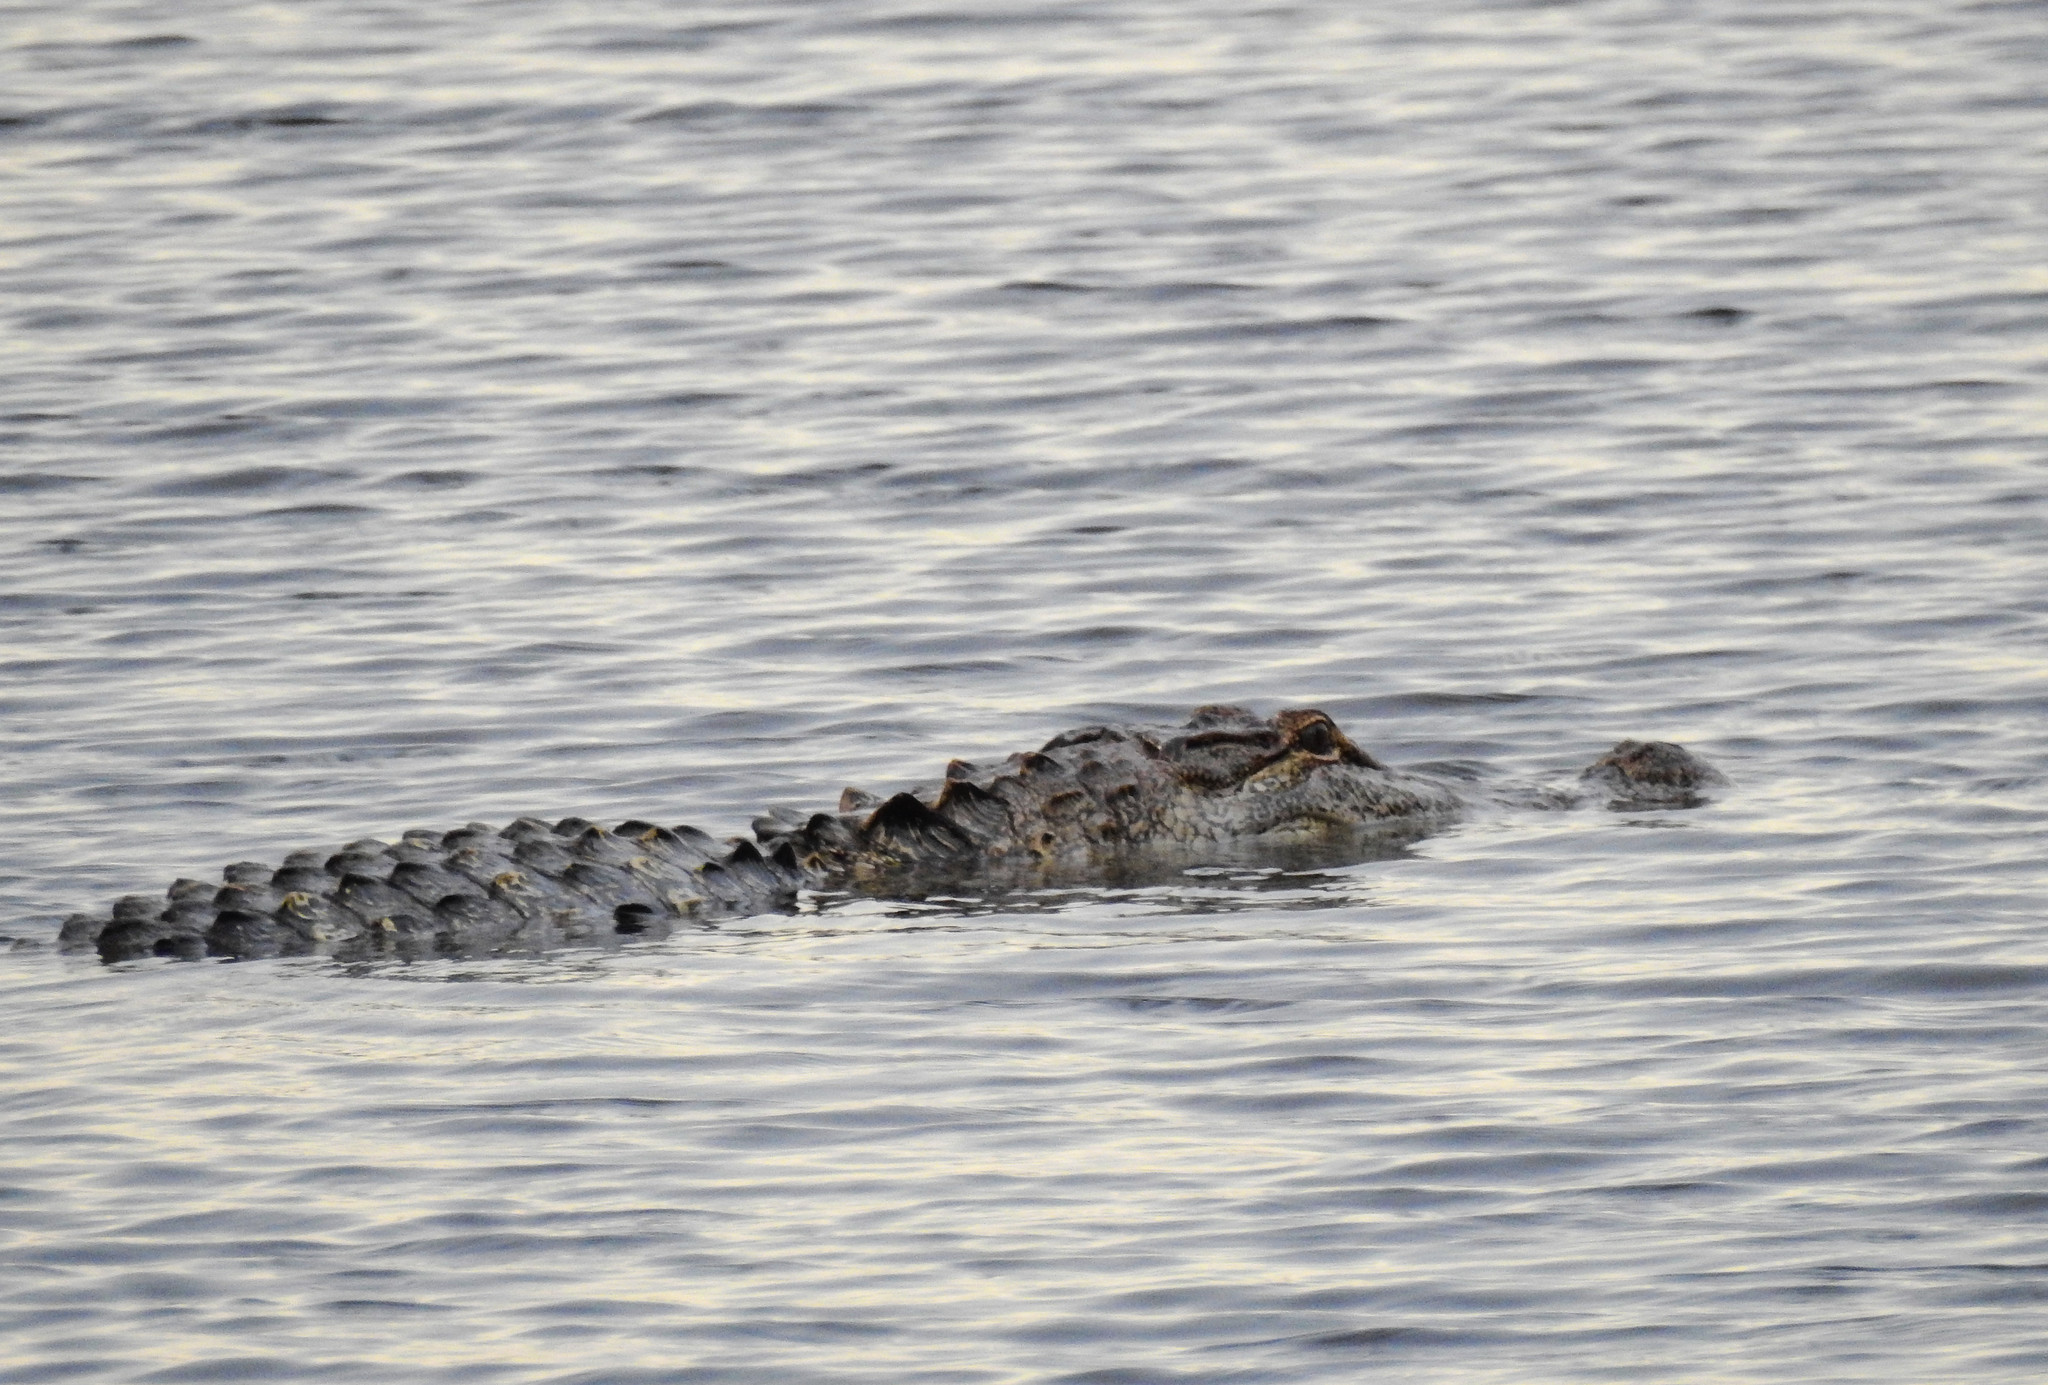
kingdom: Animalia
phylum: Chordata
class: Crocodylia
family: Alligatoridae
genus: Alligator
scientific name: Alligator mississippiensis
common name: American alligator
